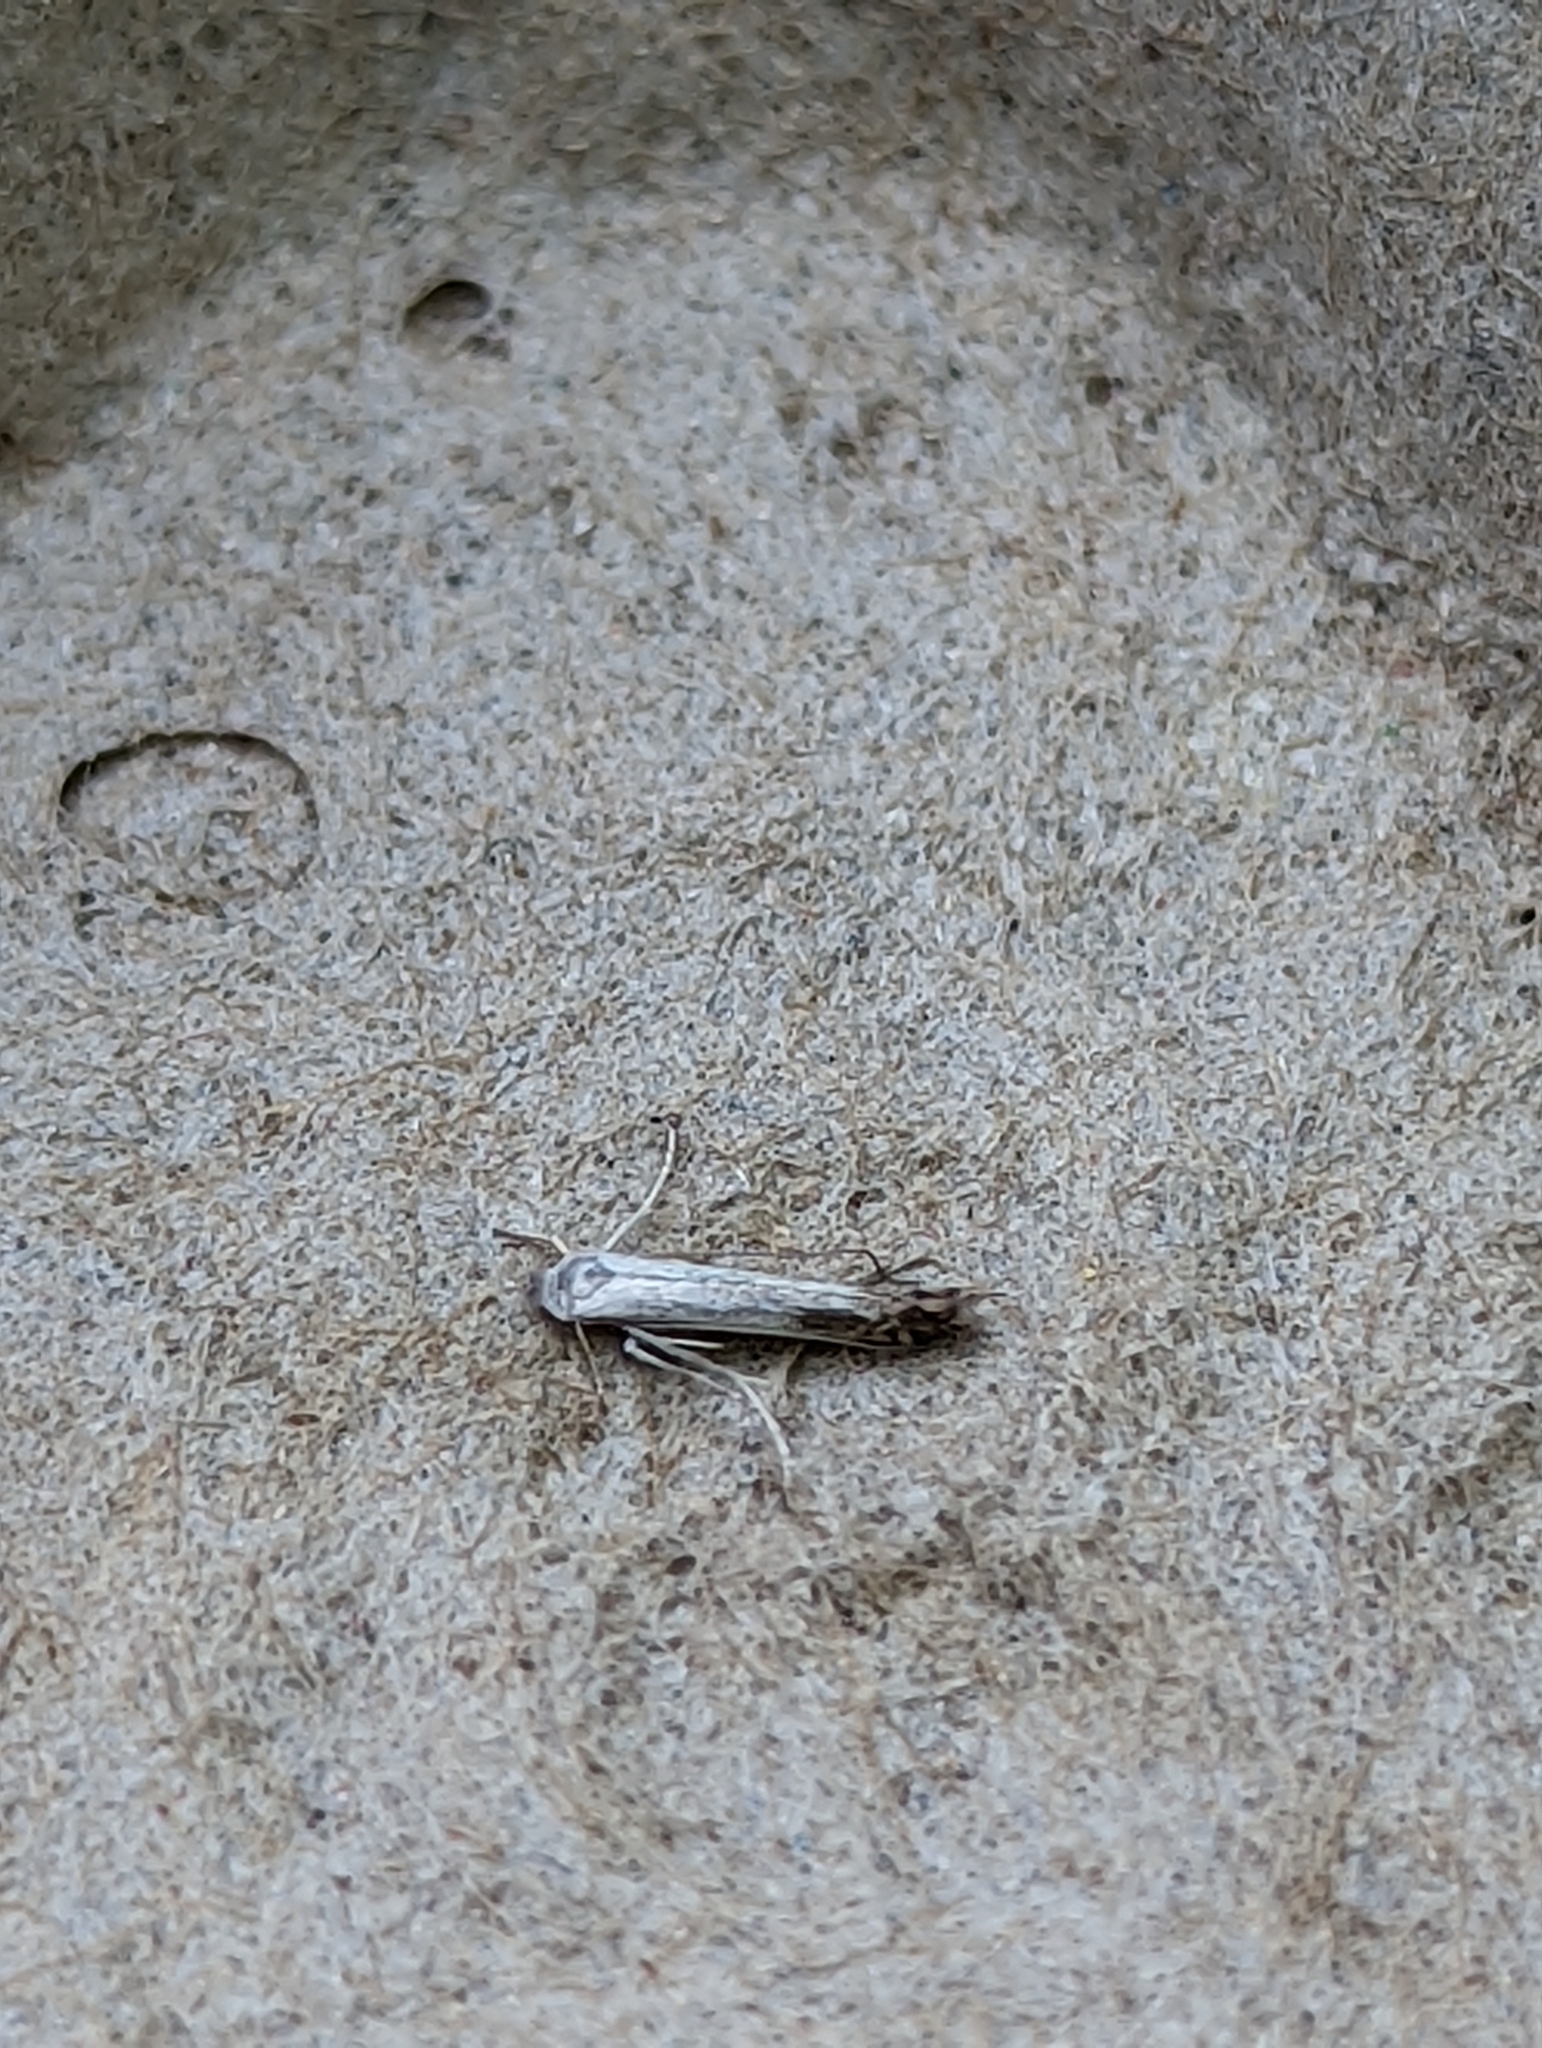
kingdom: Animalia
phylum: Arthropoda
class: Insecta
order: Lepidoptera
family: Lyonetiidae
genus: Lyonetia
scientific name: Lyonetia clerkella
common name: Apple leaf miner
